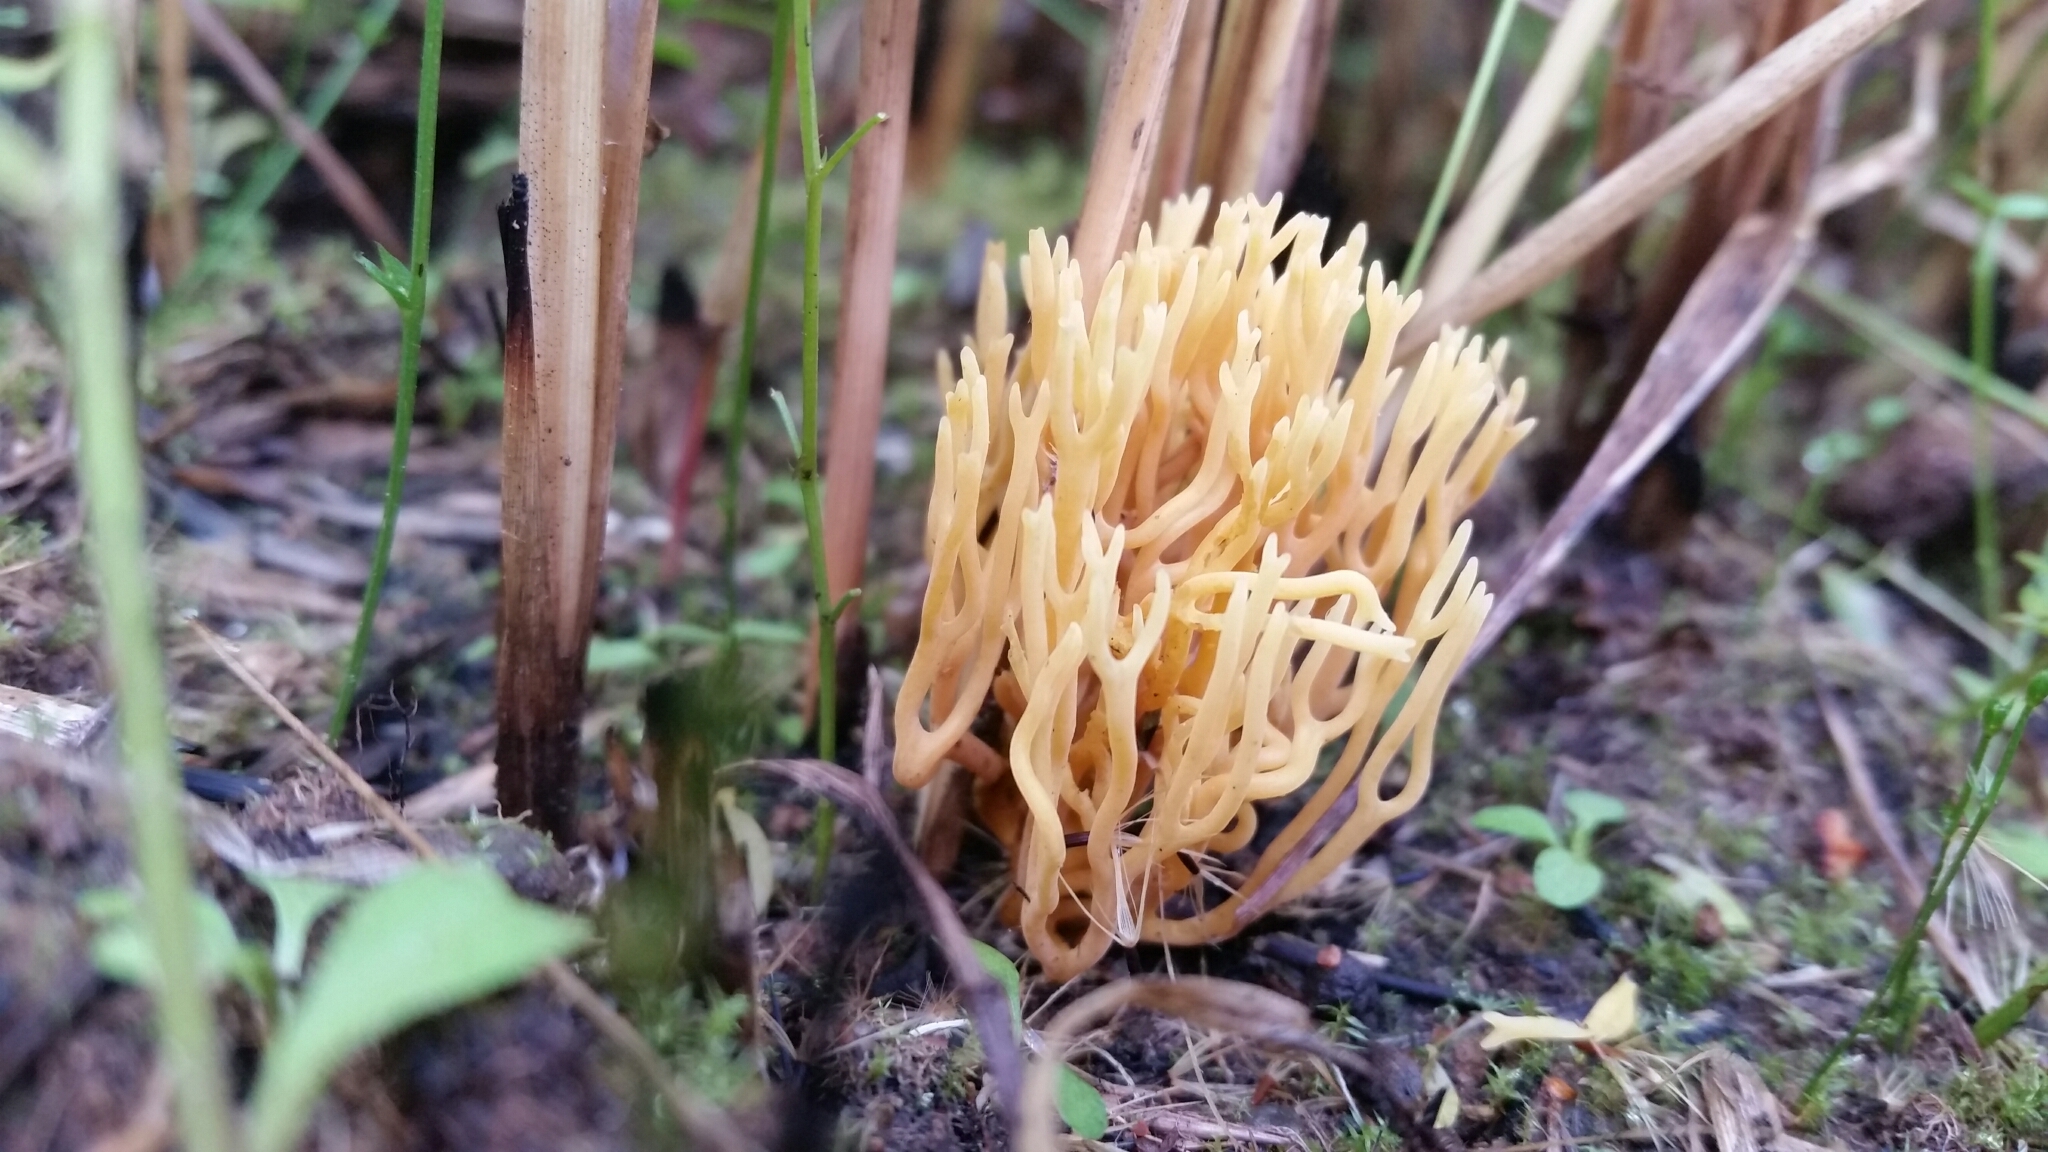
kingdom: Fungi
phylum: Basidiomycota
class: Agaricomycetes
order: Agaricales
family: Clavariaceae
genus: Ramariopsis
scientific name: Ramariopsis crocea
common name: Orange coral
